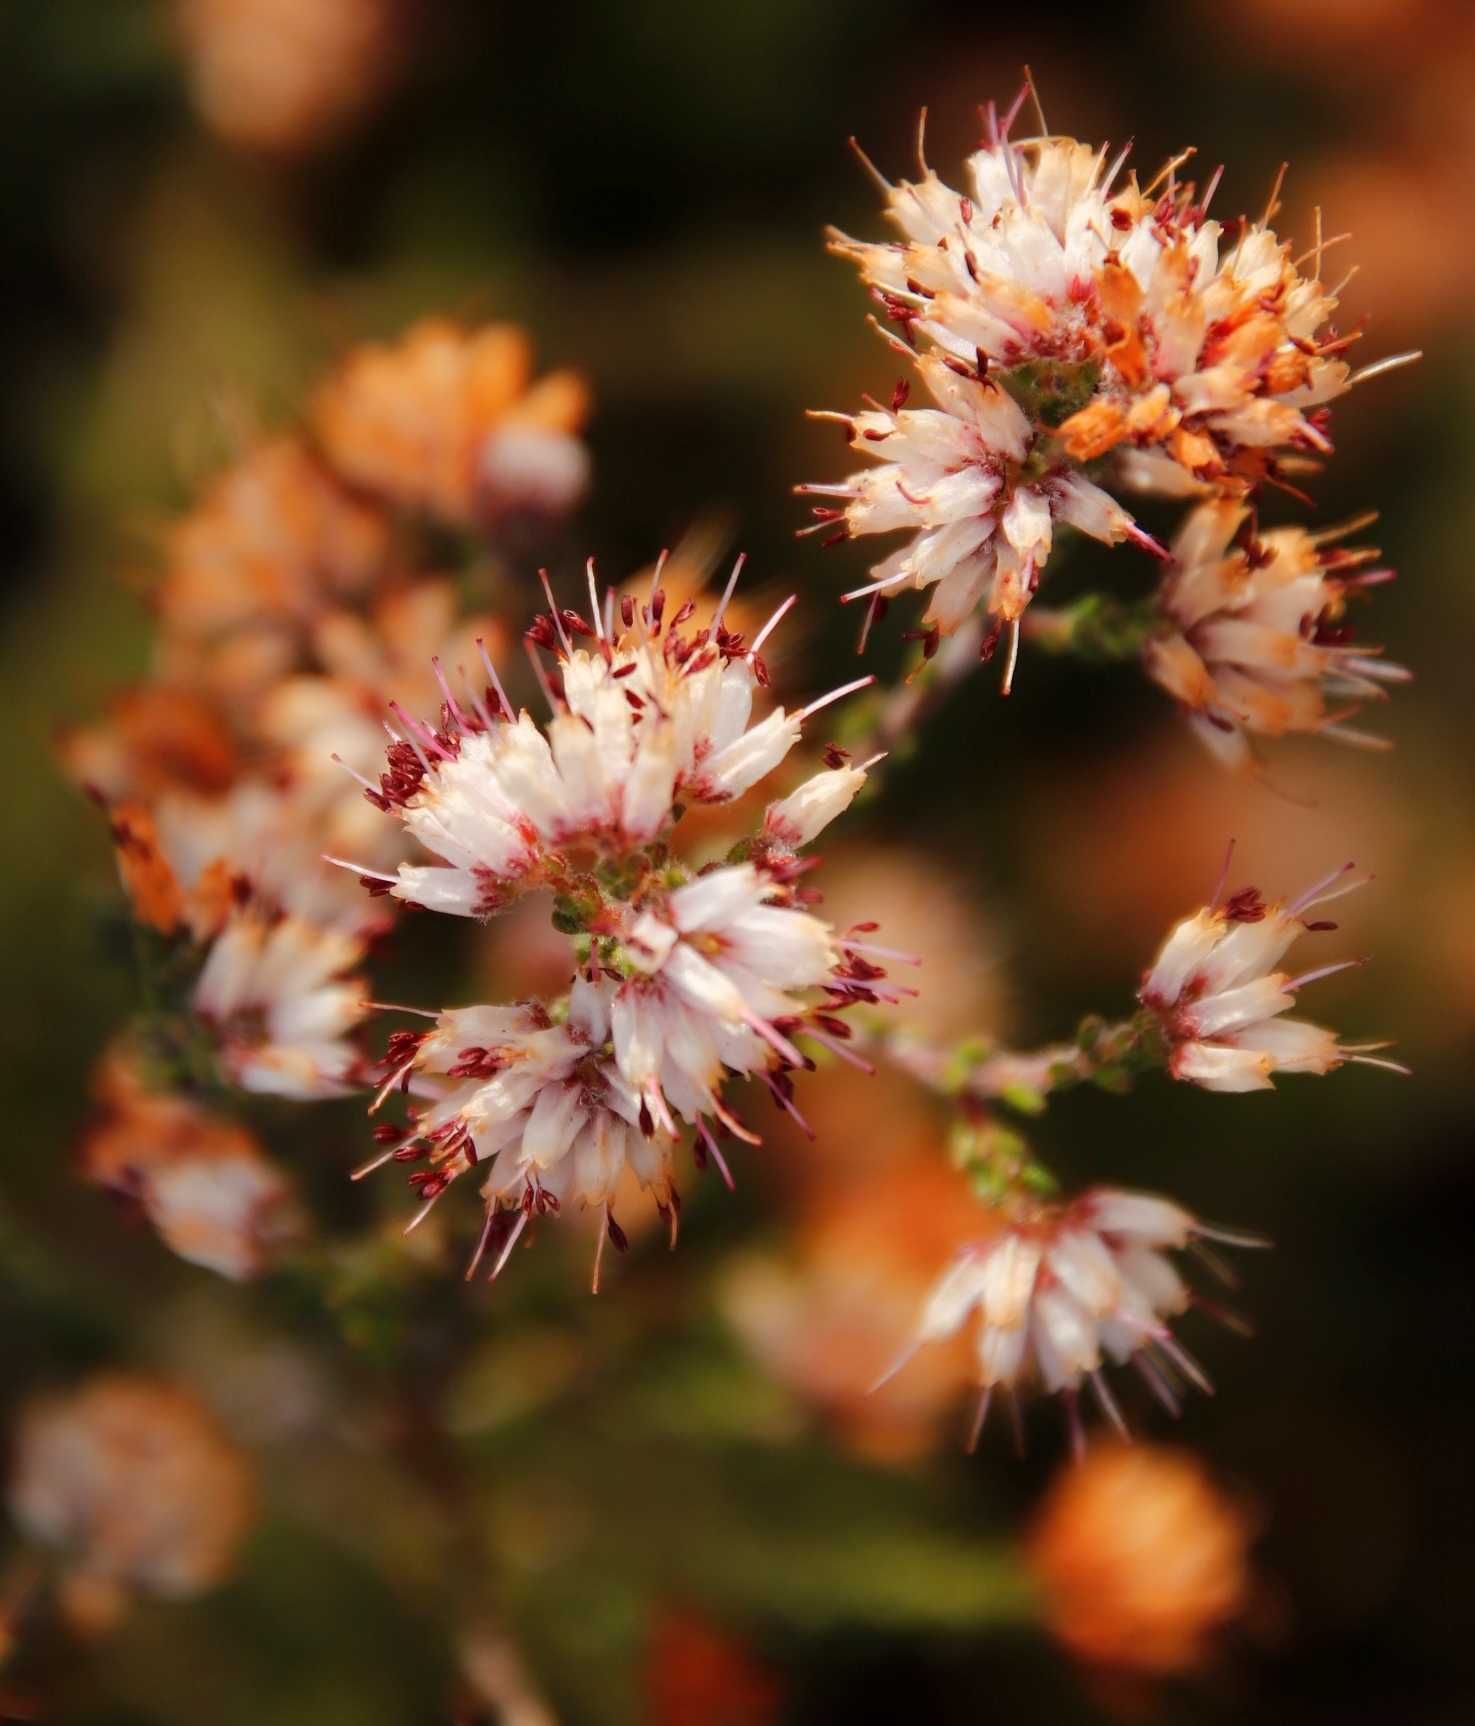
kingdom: Plantae
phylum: Tracheophyta
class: Magnoliopsida
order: Ericales
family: Ericaceae
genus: Erica
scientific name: Erica ericoides
